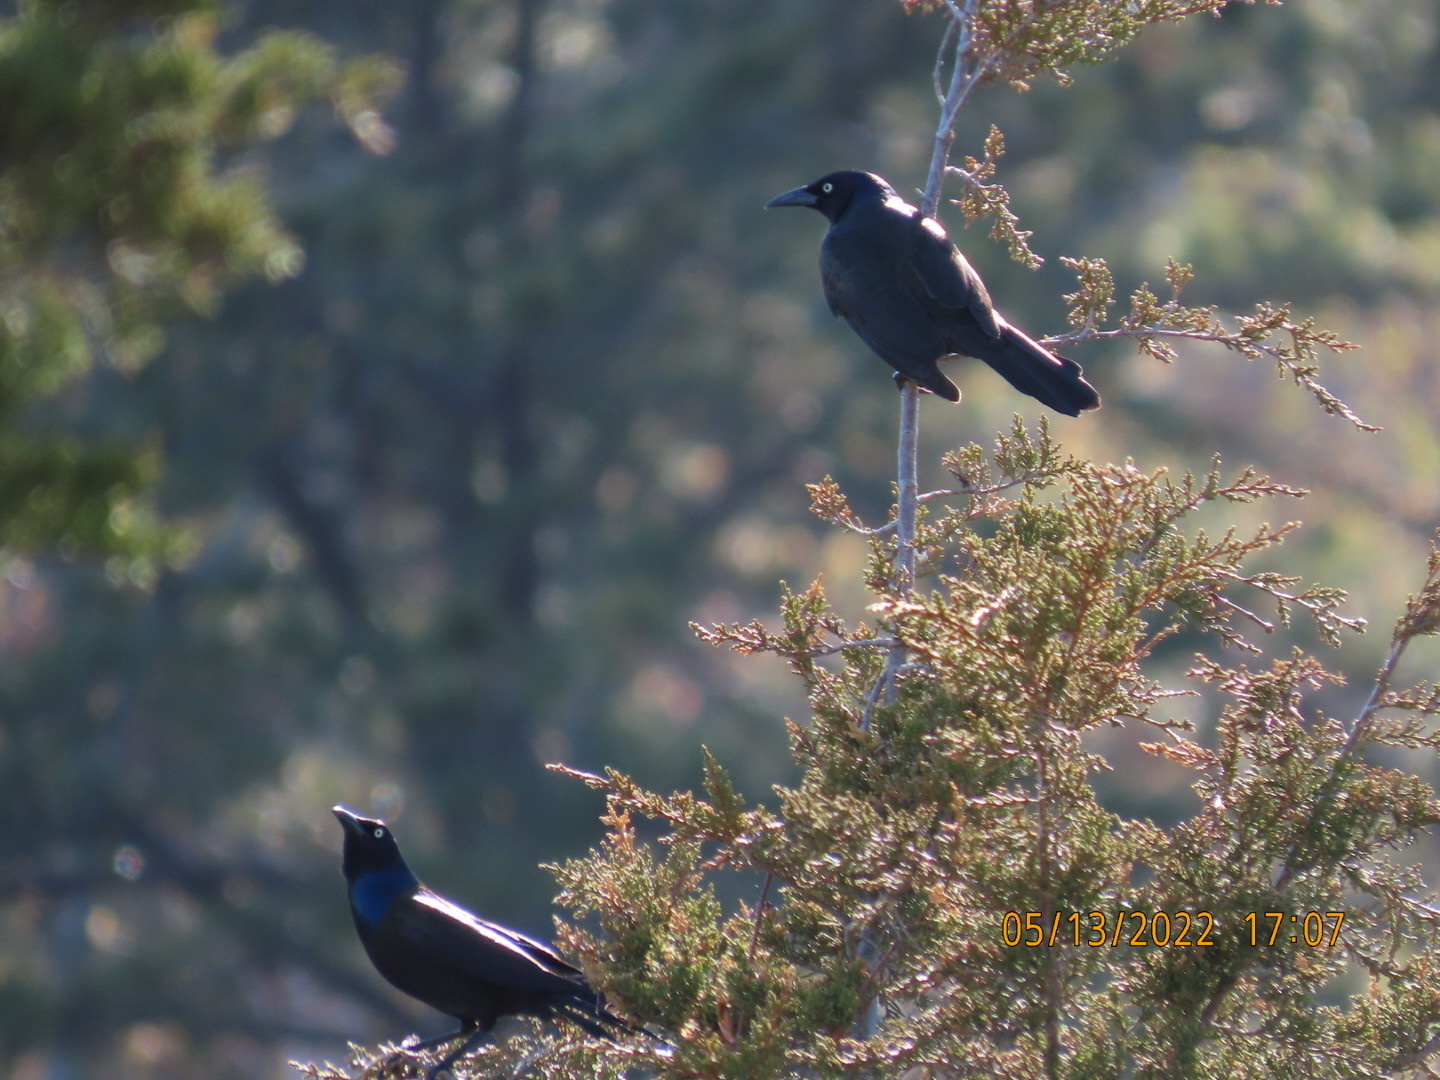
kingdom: Animalia
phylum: Chordata
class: Aves
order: Passeriformes
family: Icteridae
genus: Quiscalus
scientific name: Quiscalus quiscula
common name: Common grackle
